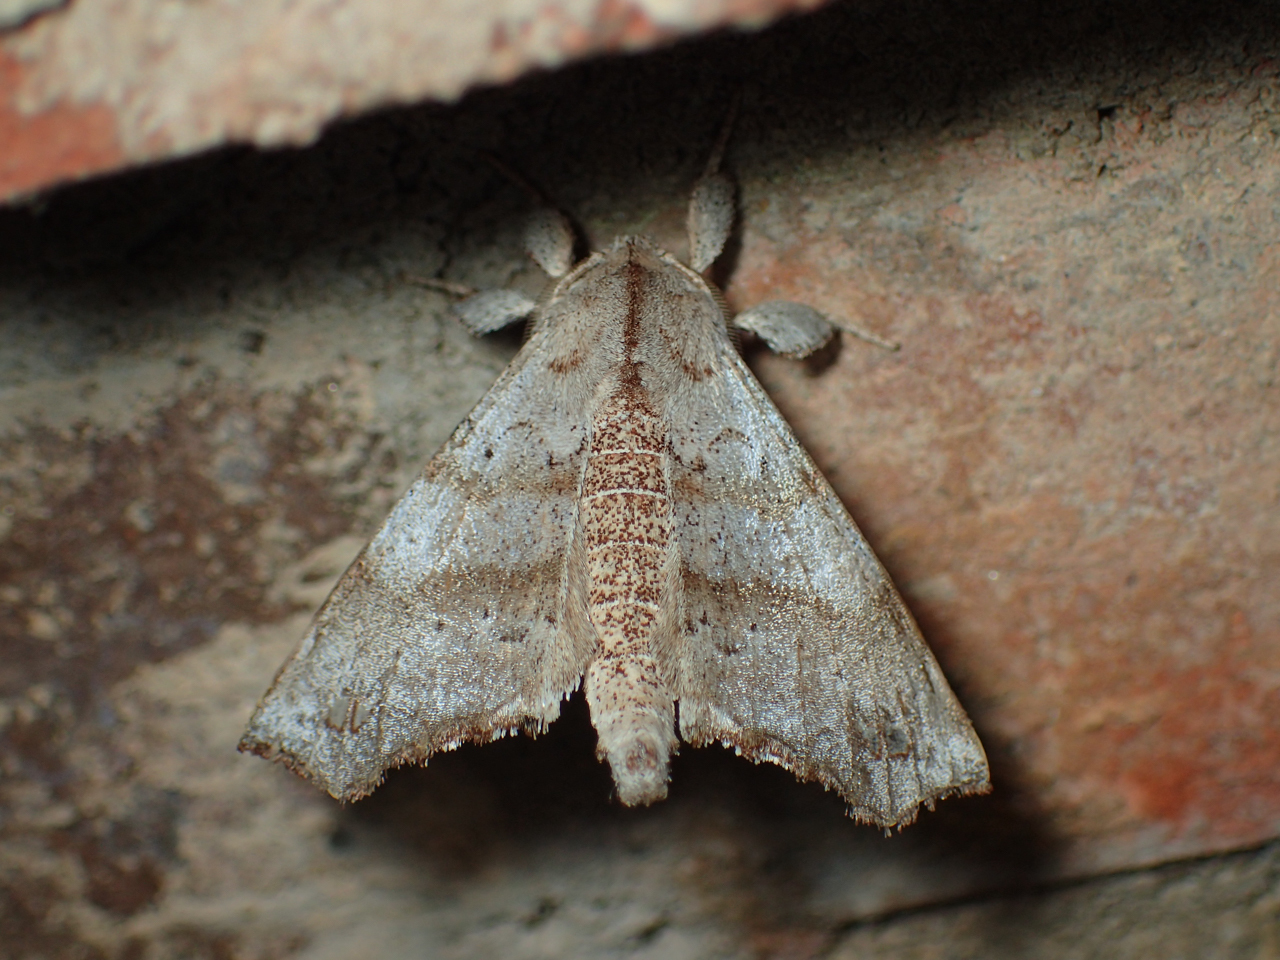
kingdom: Animalia
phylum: Arthropoda
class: Insecta
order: Lepidoptera
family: Apatelodidae
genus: Olceclostera
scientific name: Olceclostera angelica
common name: Angel moth
